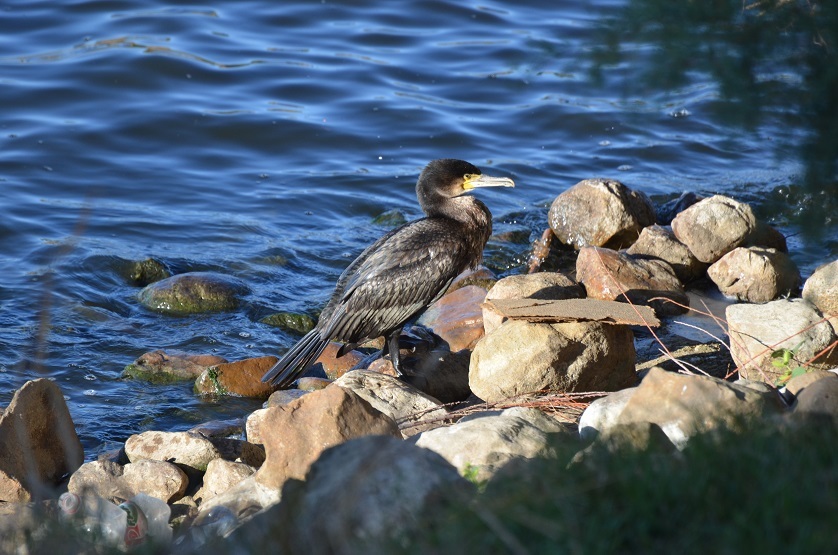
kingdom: Animalia
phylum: Chordata
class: Aves
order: Suliformes
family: Phalacrocoracidae
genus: Phalacrocorax
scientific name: Phalacrocorax carbo
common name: Great cormorant
